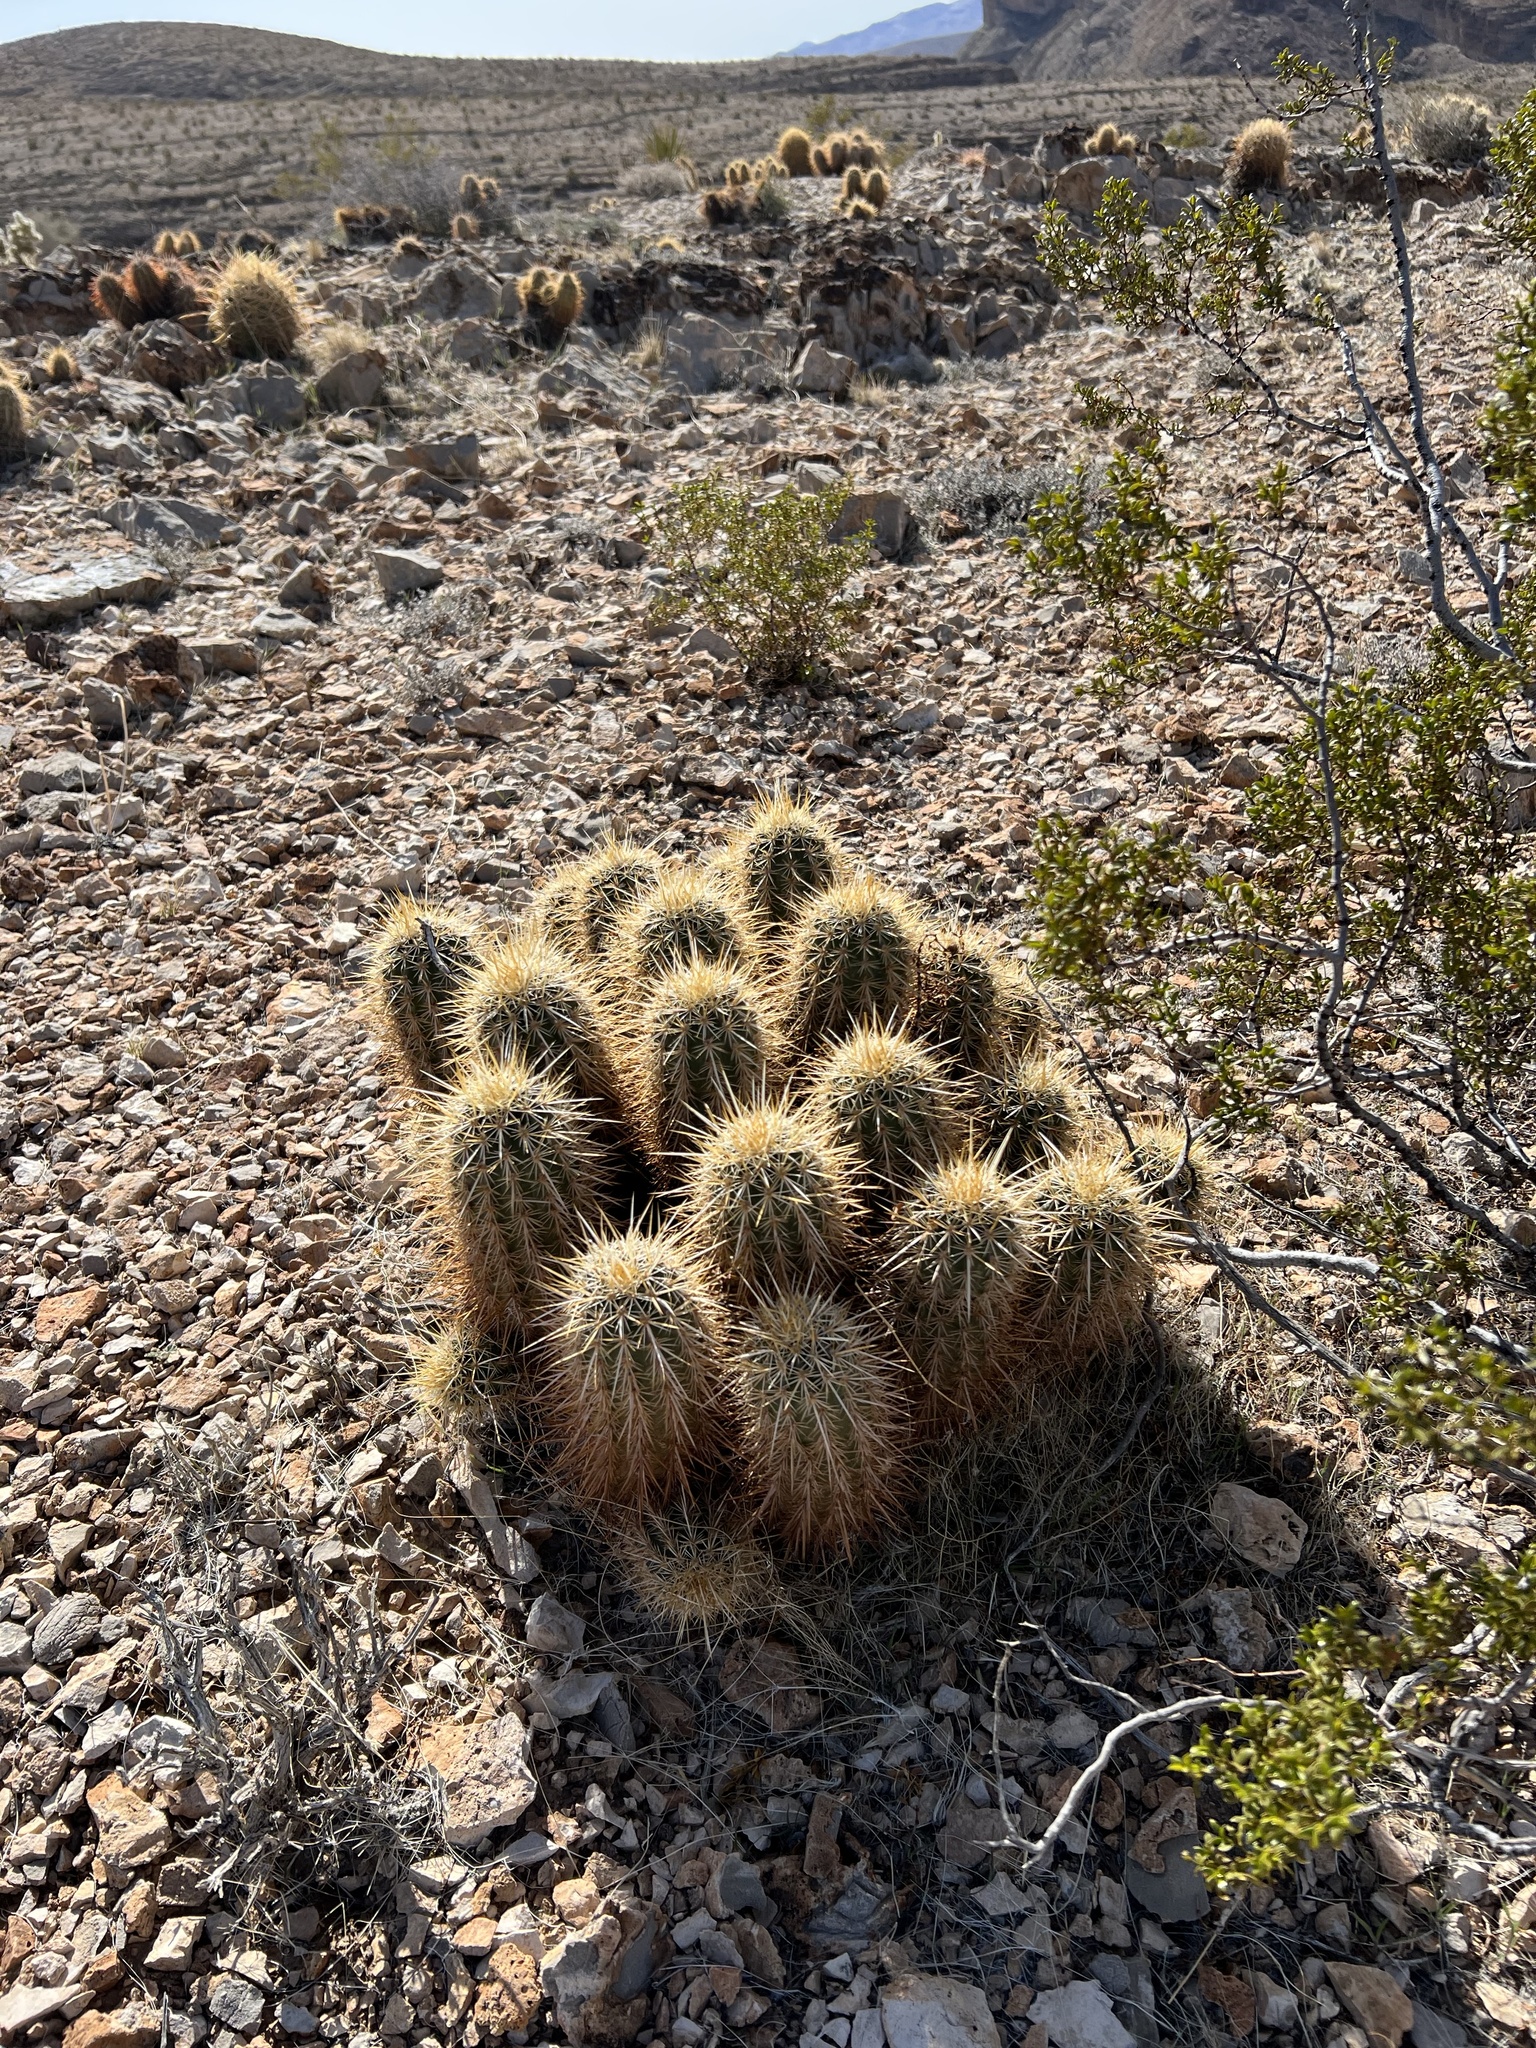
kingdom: Plantae
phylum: Tracheophyta
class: Magnoliopsida
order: Caryophyllales
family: Cactaceae
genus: Echinocereus
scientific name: Echinocereus engelmannii
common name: Engelmann's hedgehog cactus
